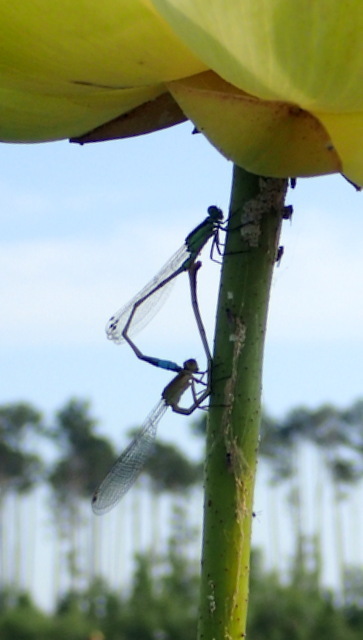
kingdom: Animalia
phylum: Arthropoda
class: Insecta
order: Odonata
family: Coenagrionidae
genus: Ischnura
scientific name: Ischnura ramburii
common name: Rambur's forktail
